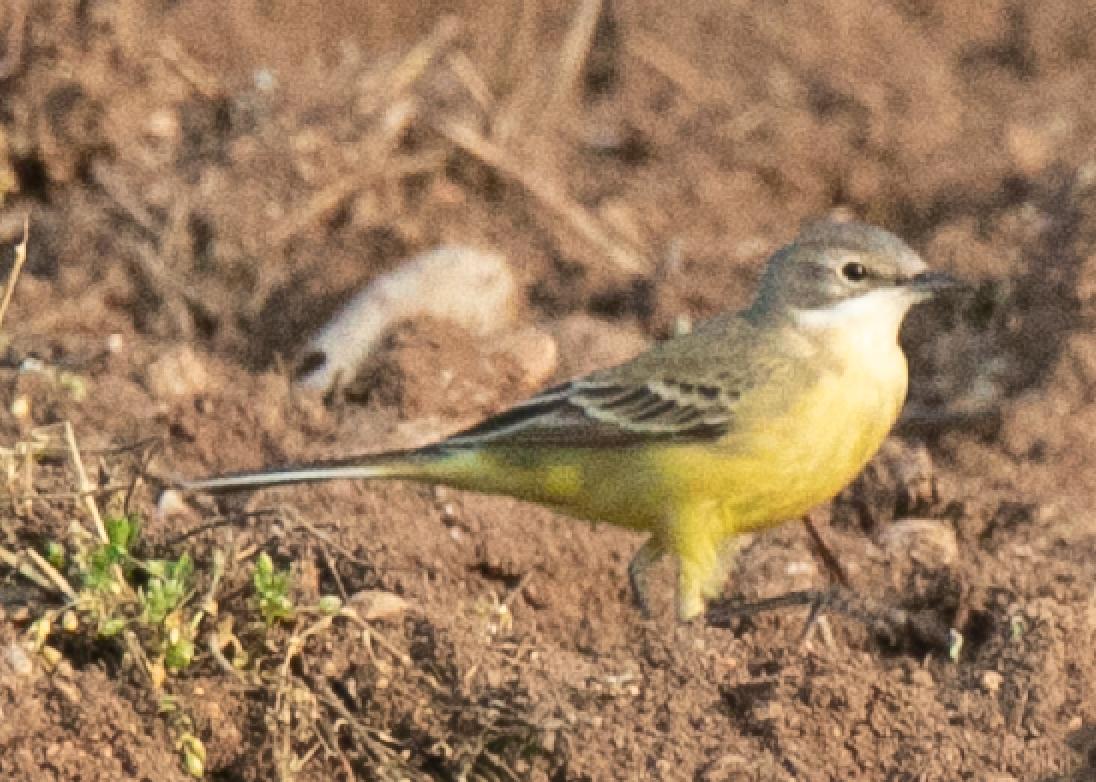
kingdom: Animalia
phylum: Chordata
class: Aves
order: Passeriformes
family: Motacillidae
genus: Motacilla
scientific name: Motacilla flava
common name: Western yellow wagtail
